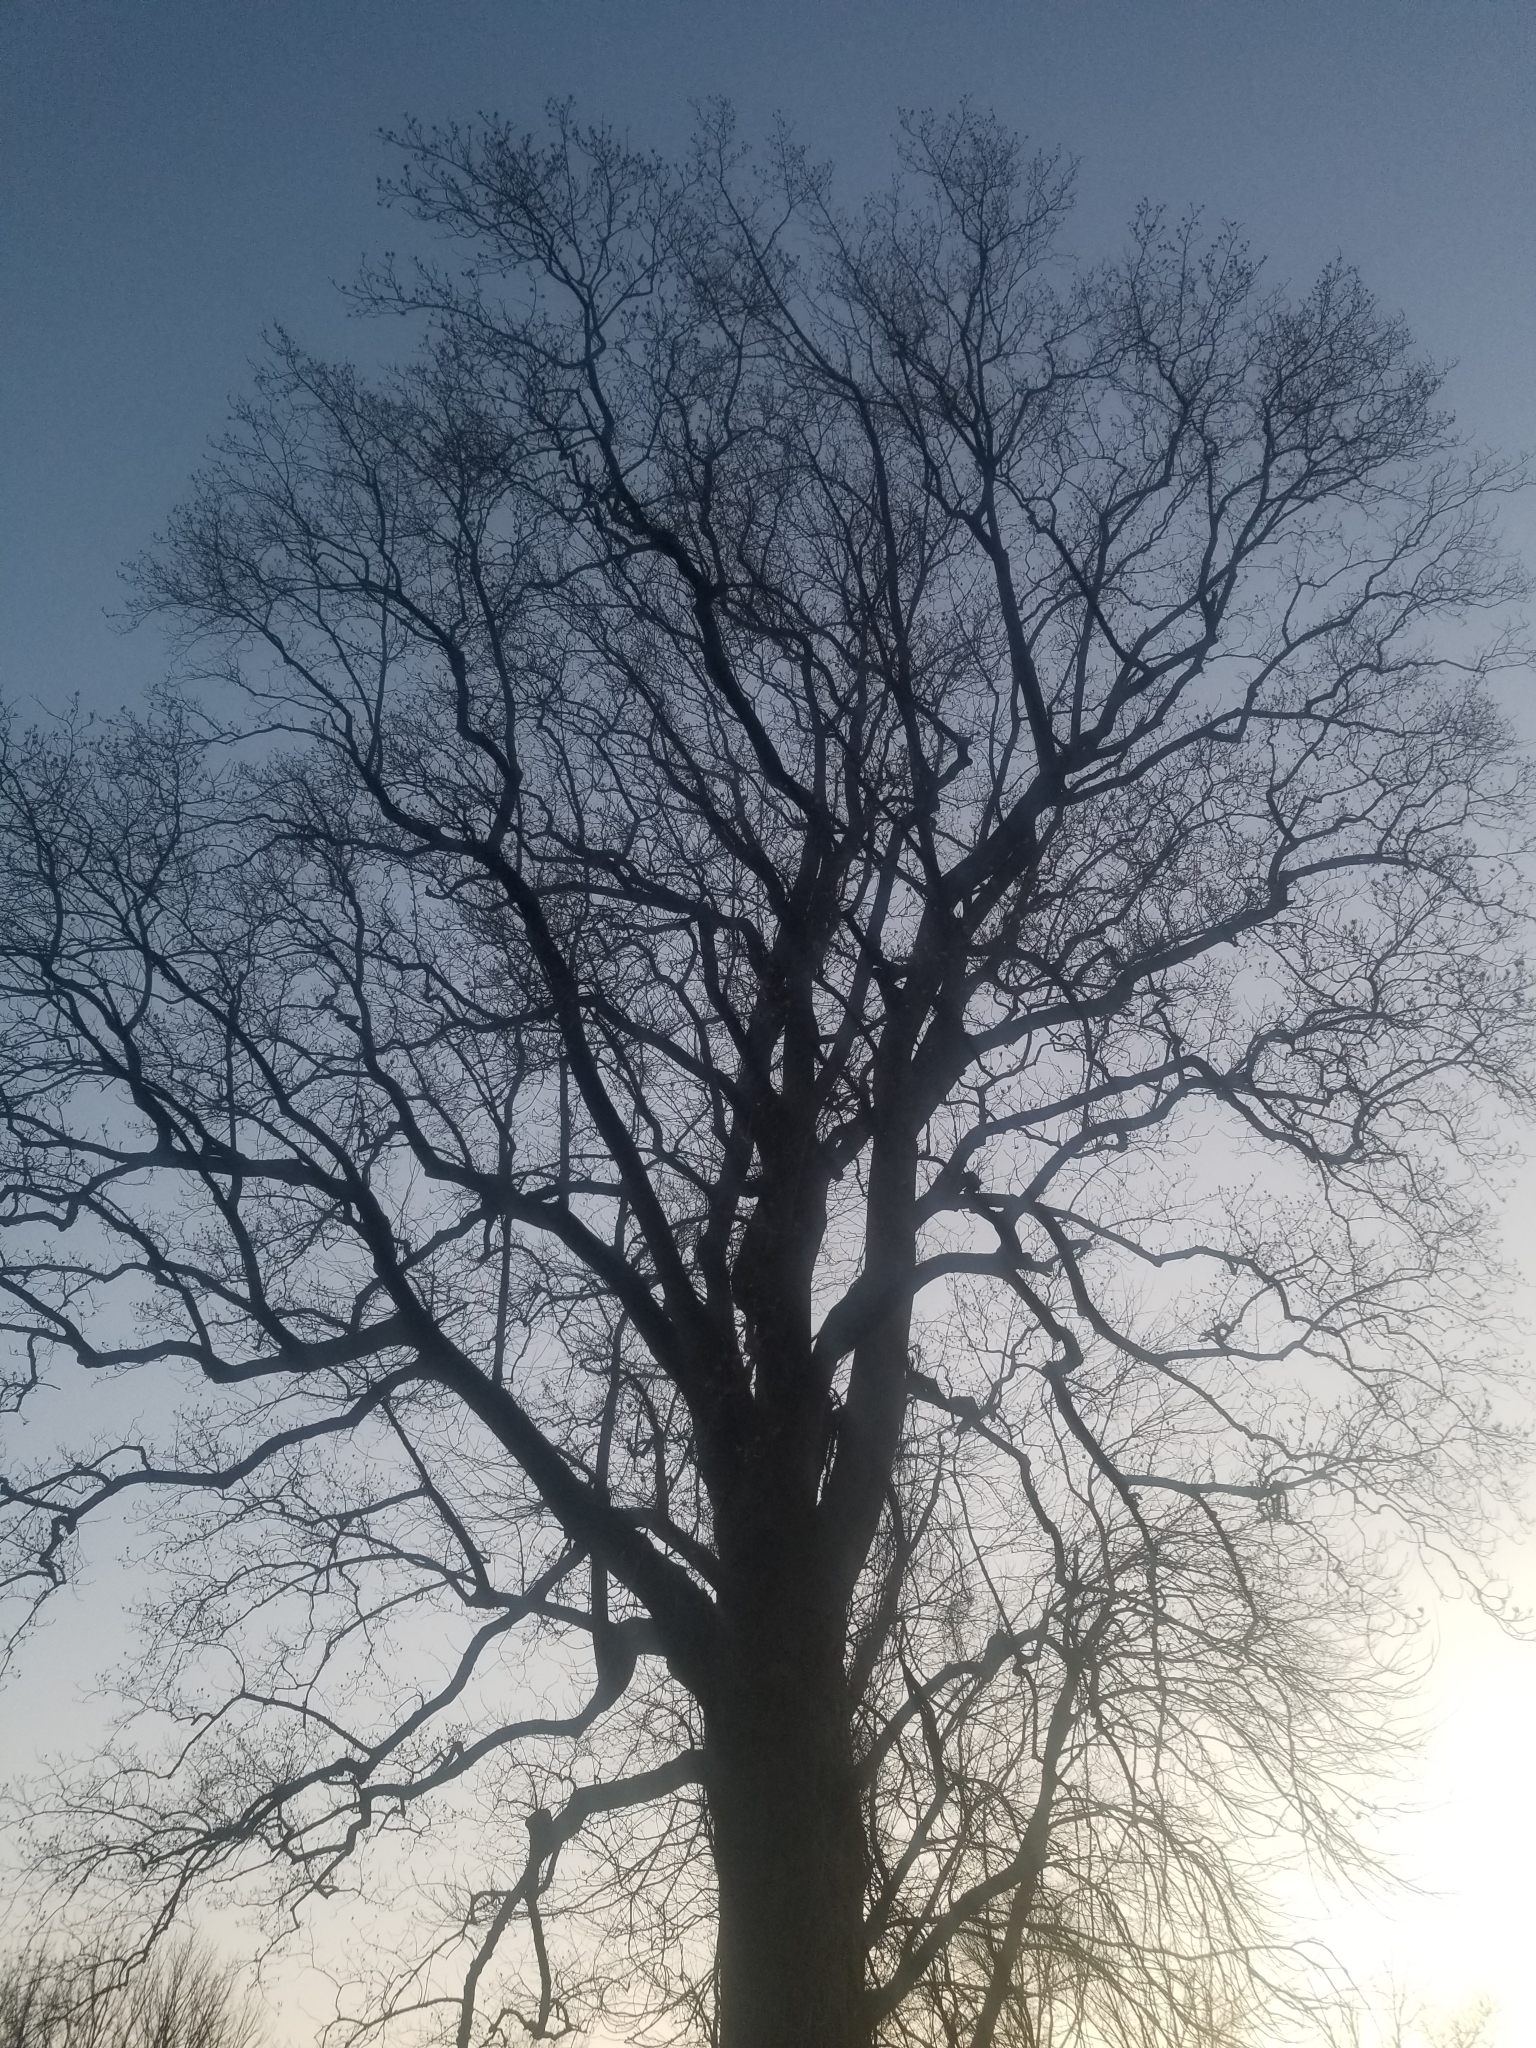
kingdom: Plantae
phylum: Tracheophyta
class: Magnoliopsida
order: Magnoliales
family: Magnoliaceae
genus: Liriodendron
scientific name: Liriodendron tulipifera
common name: Tulip tree
